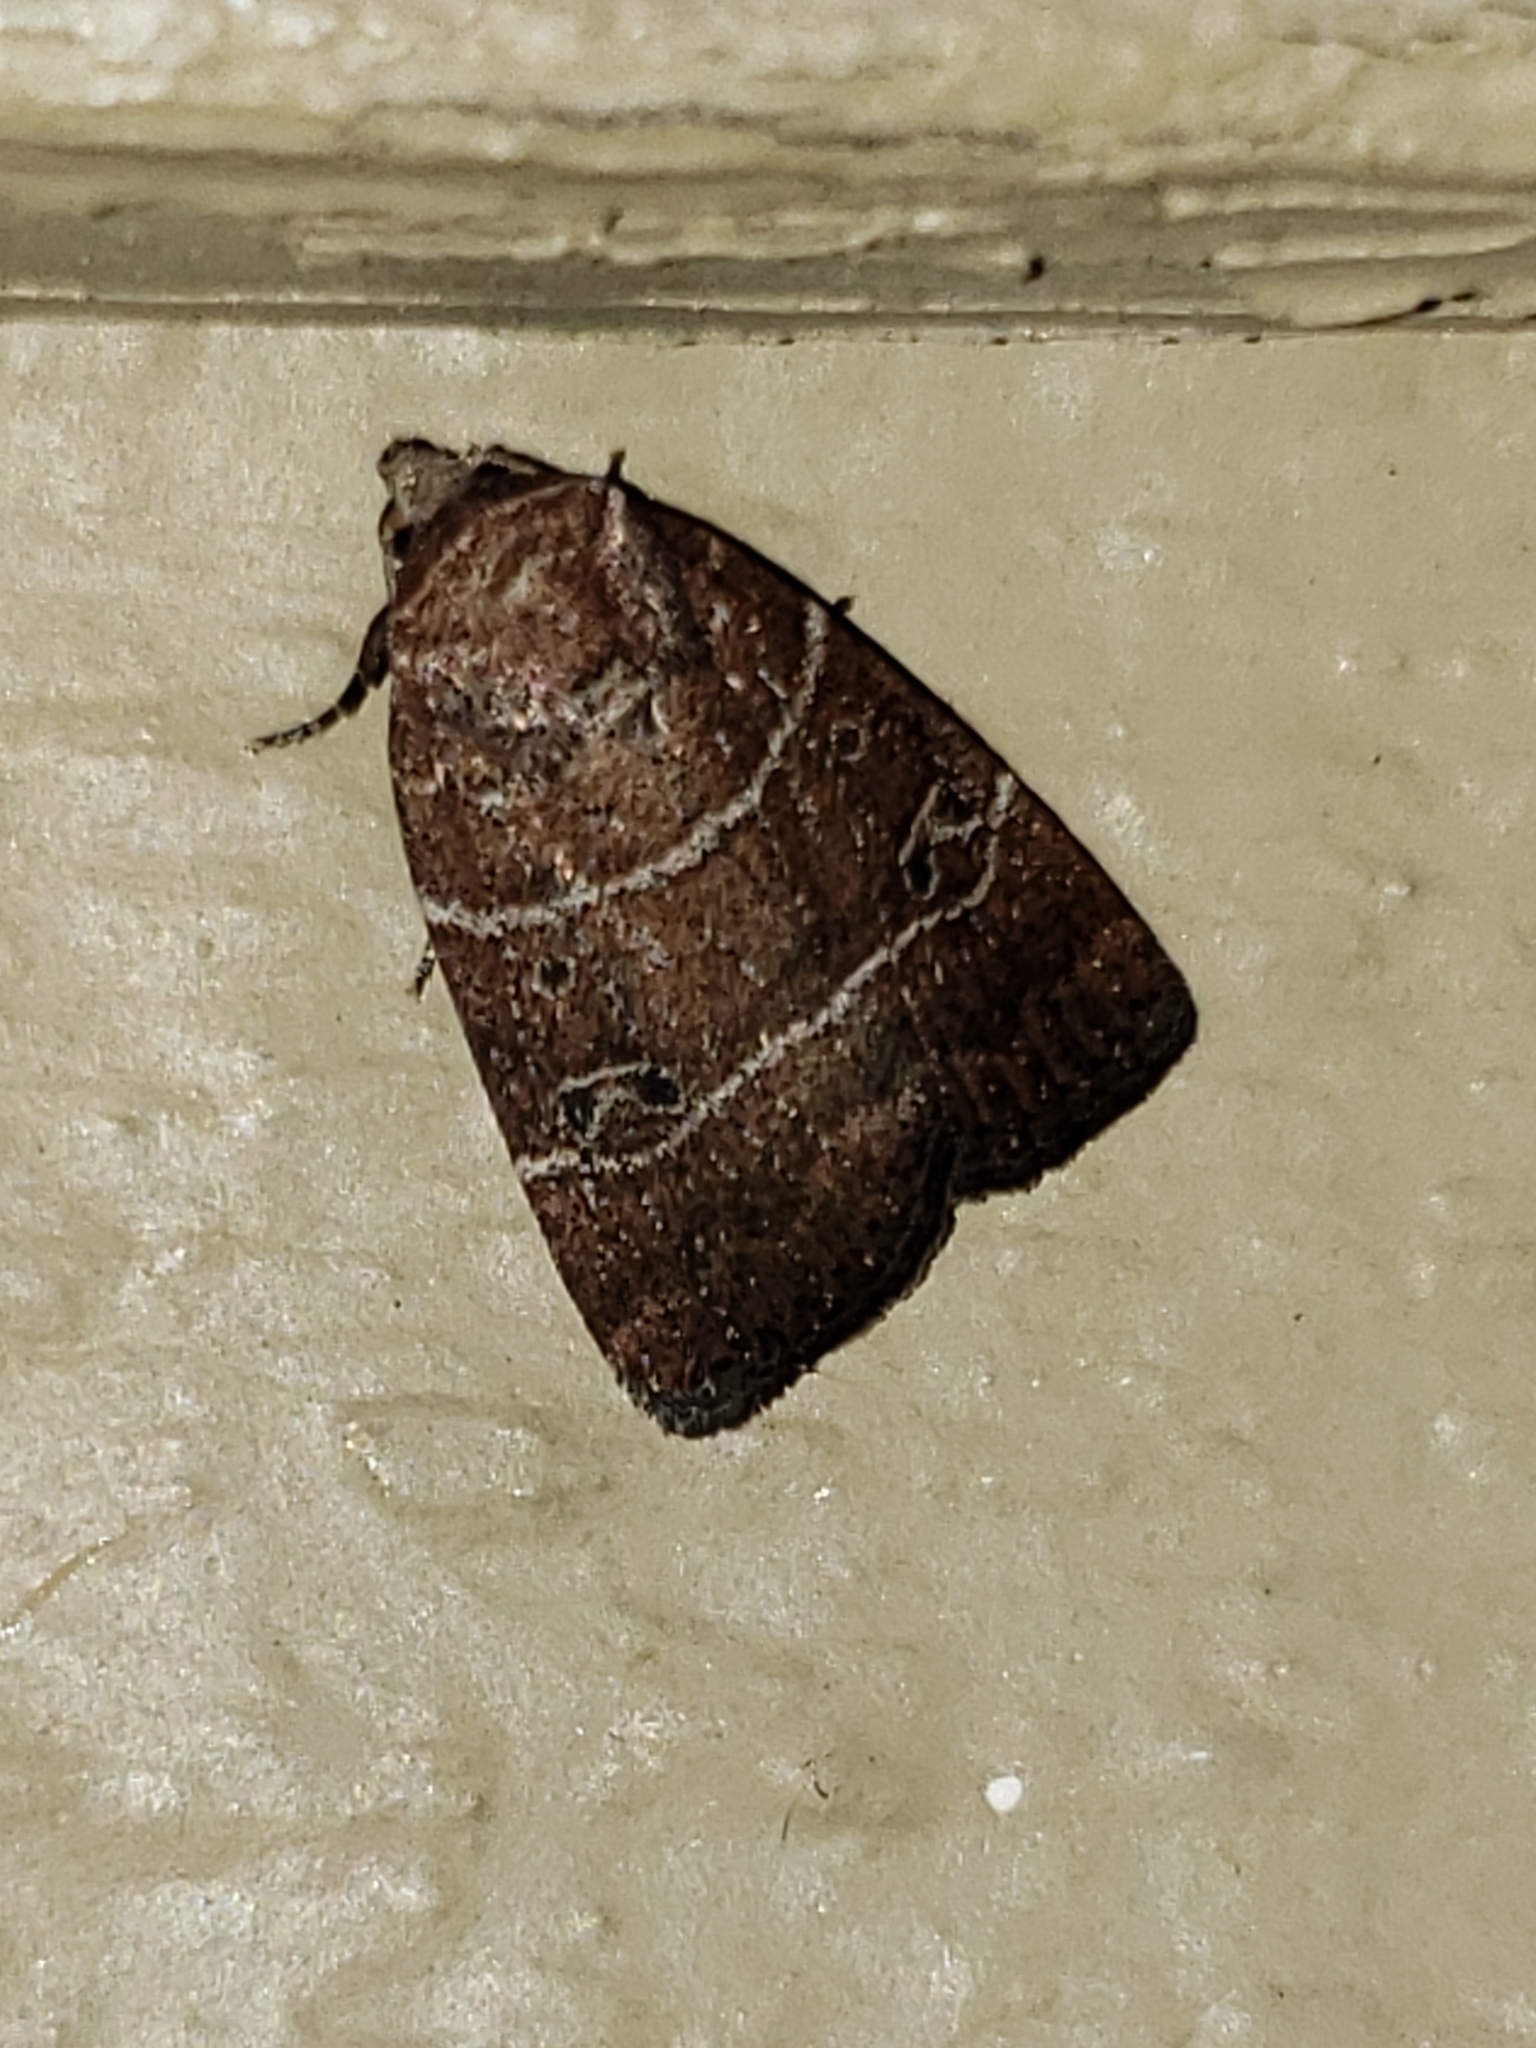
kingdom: Animalia
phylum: Arthropoda
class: Insecta
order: Lepidoptera
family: Noctuidae
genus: Elaphria
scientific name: Elaphria grata
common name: Grateful midget moth
